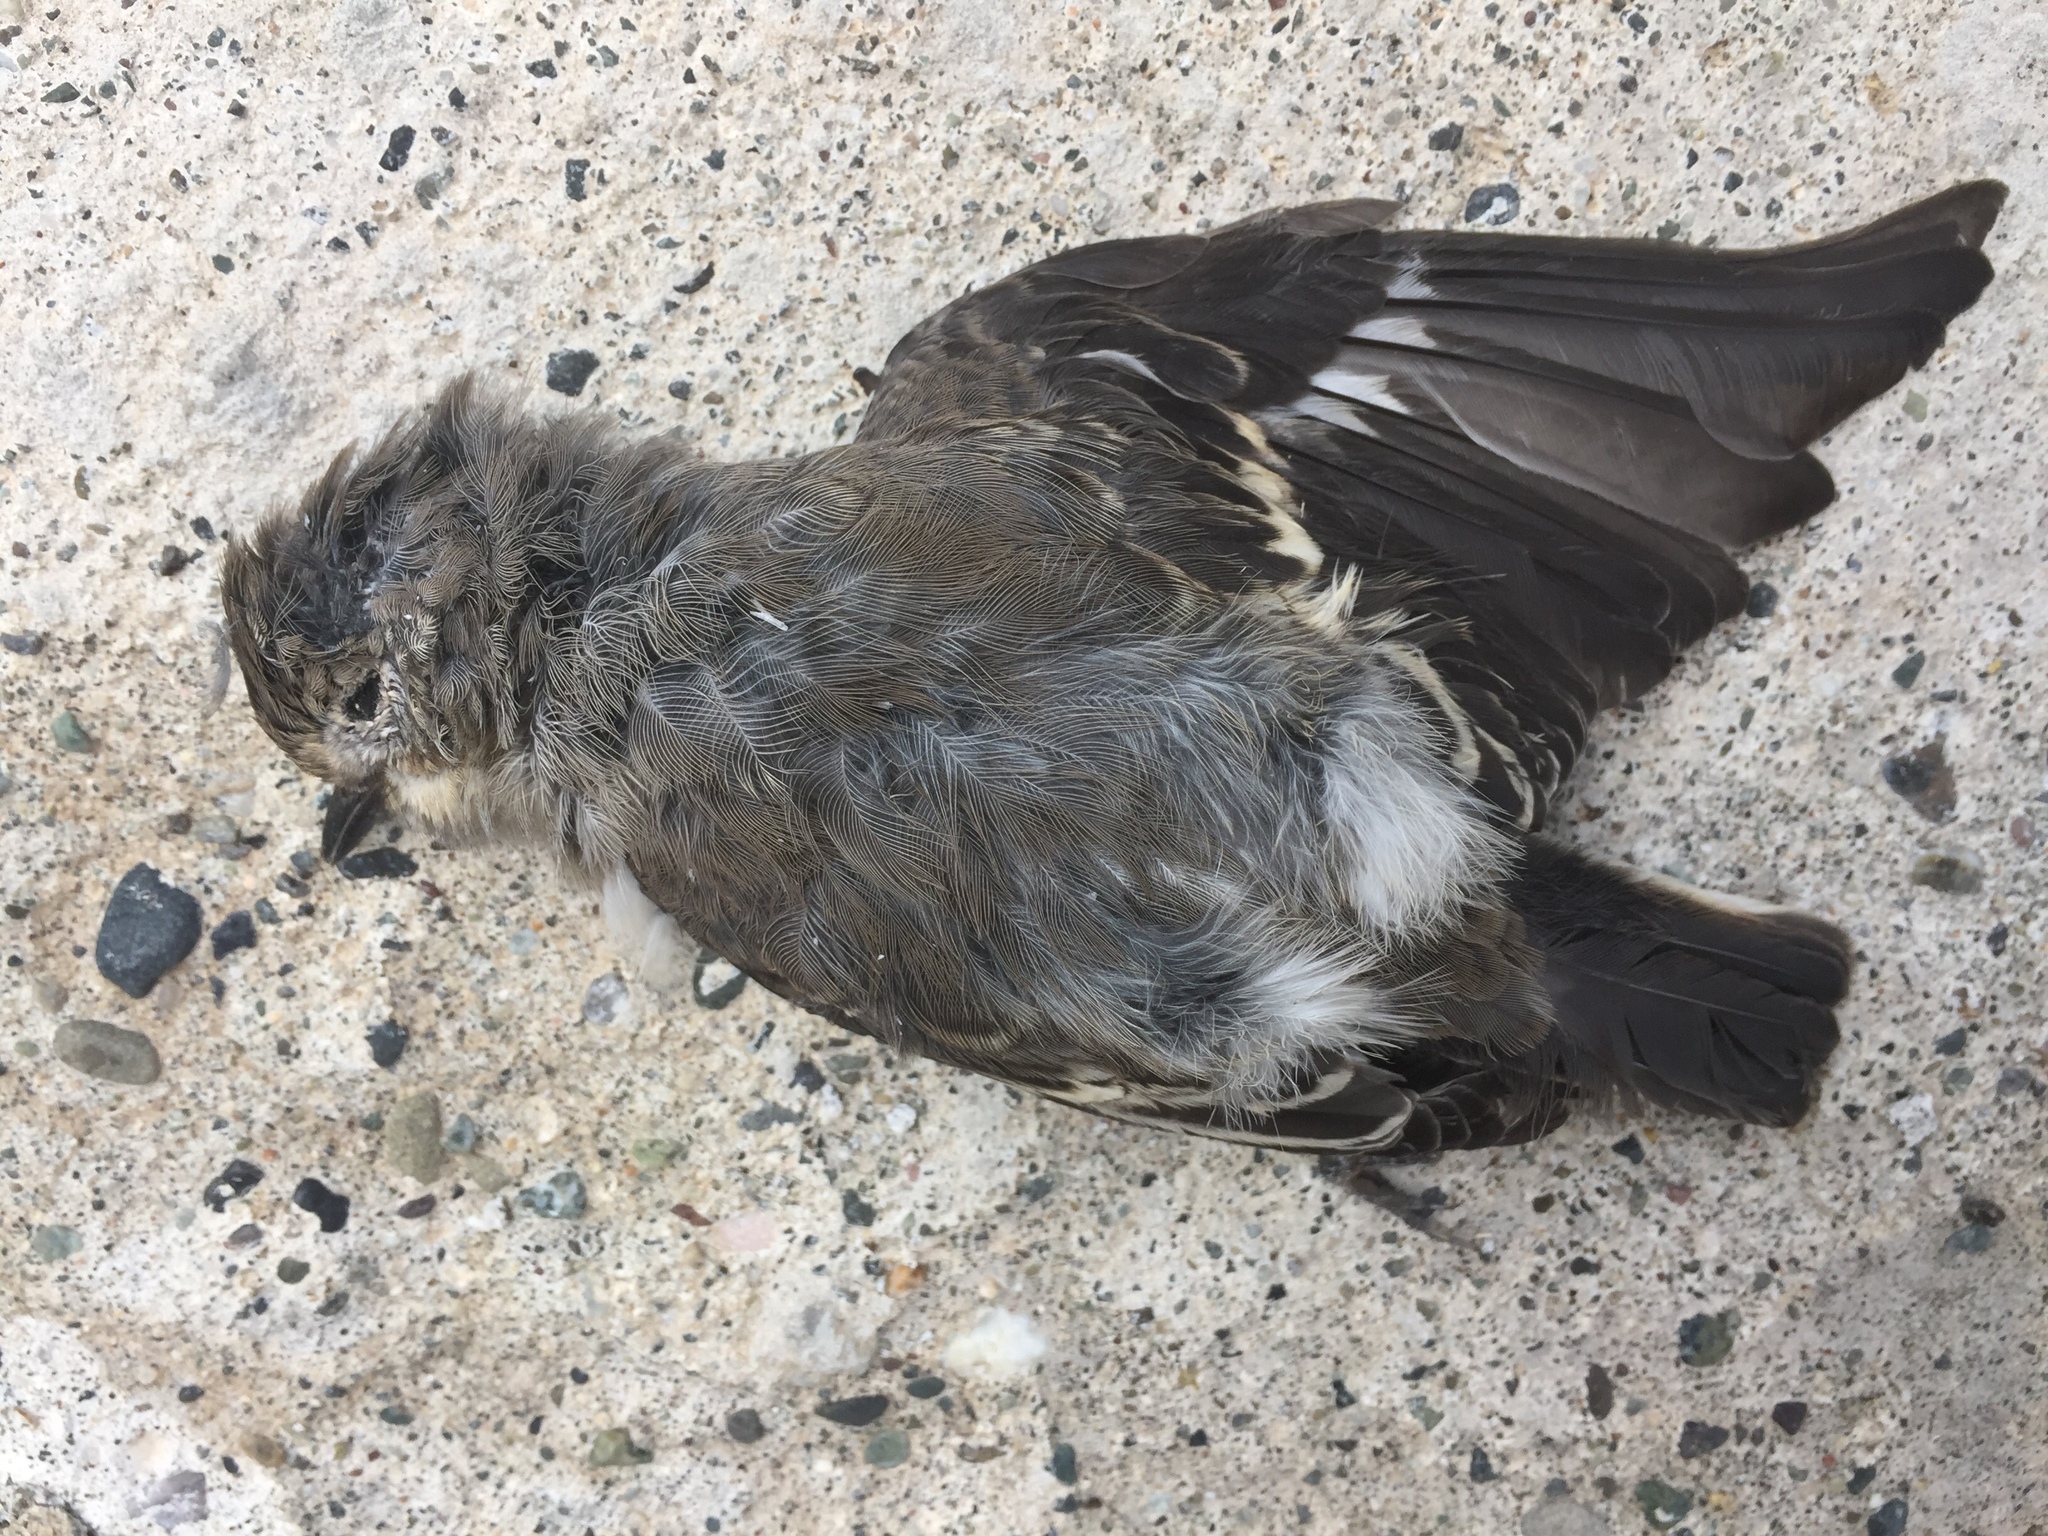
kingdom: Animalia
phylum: Chordata
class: Aves
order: Passeriformes
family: Muscicapidae
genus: Ficedula
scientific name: Ficedula semitorquata
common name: Semicollared flycatcher
